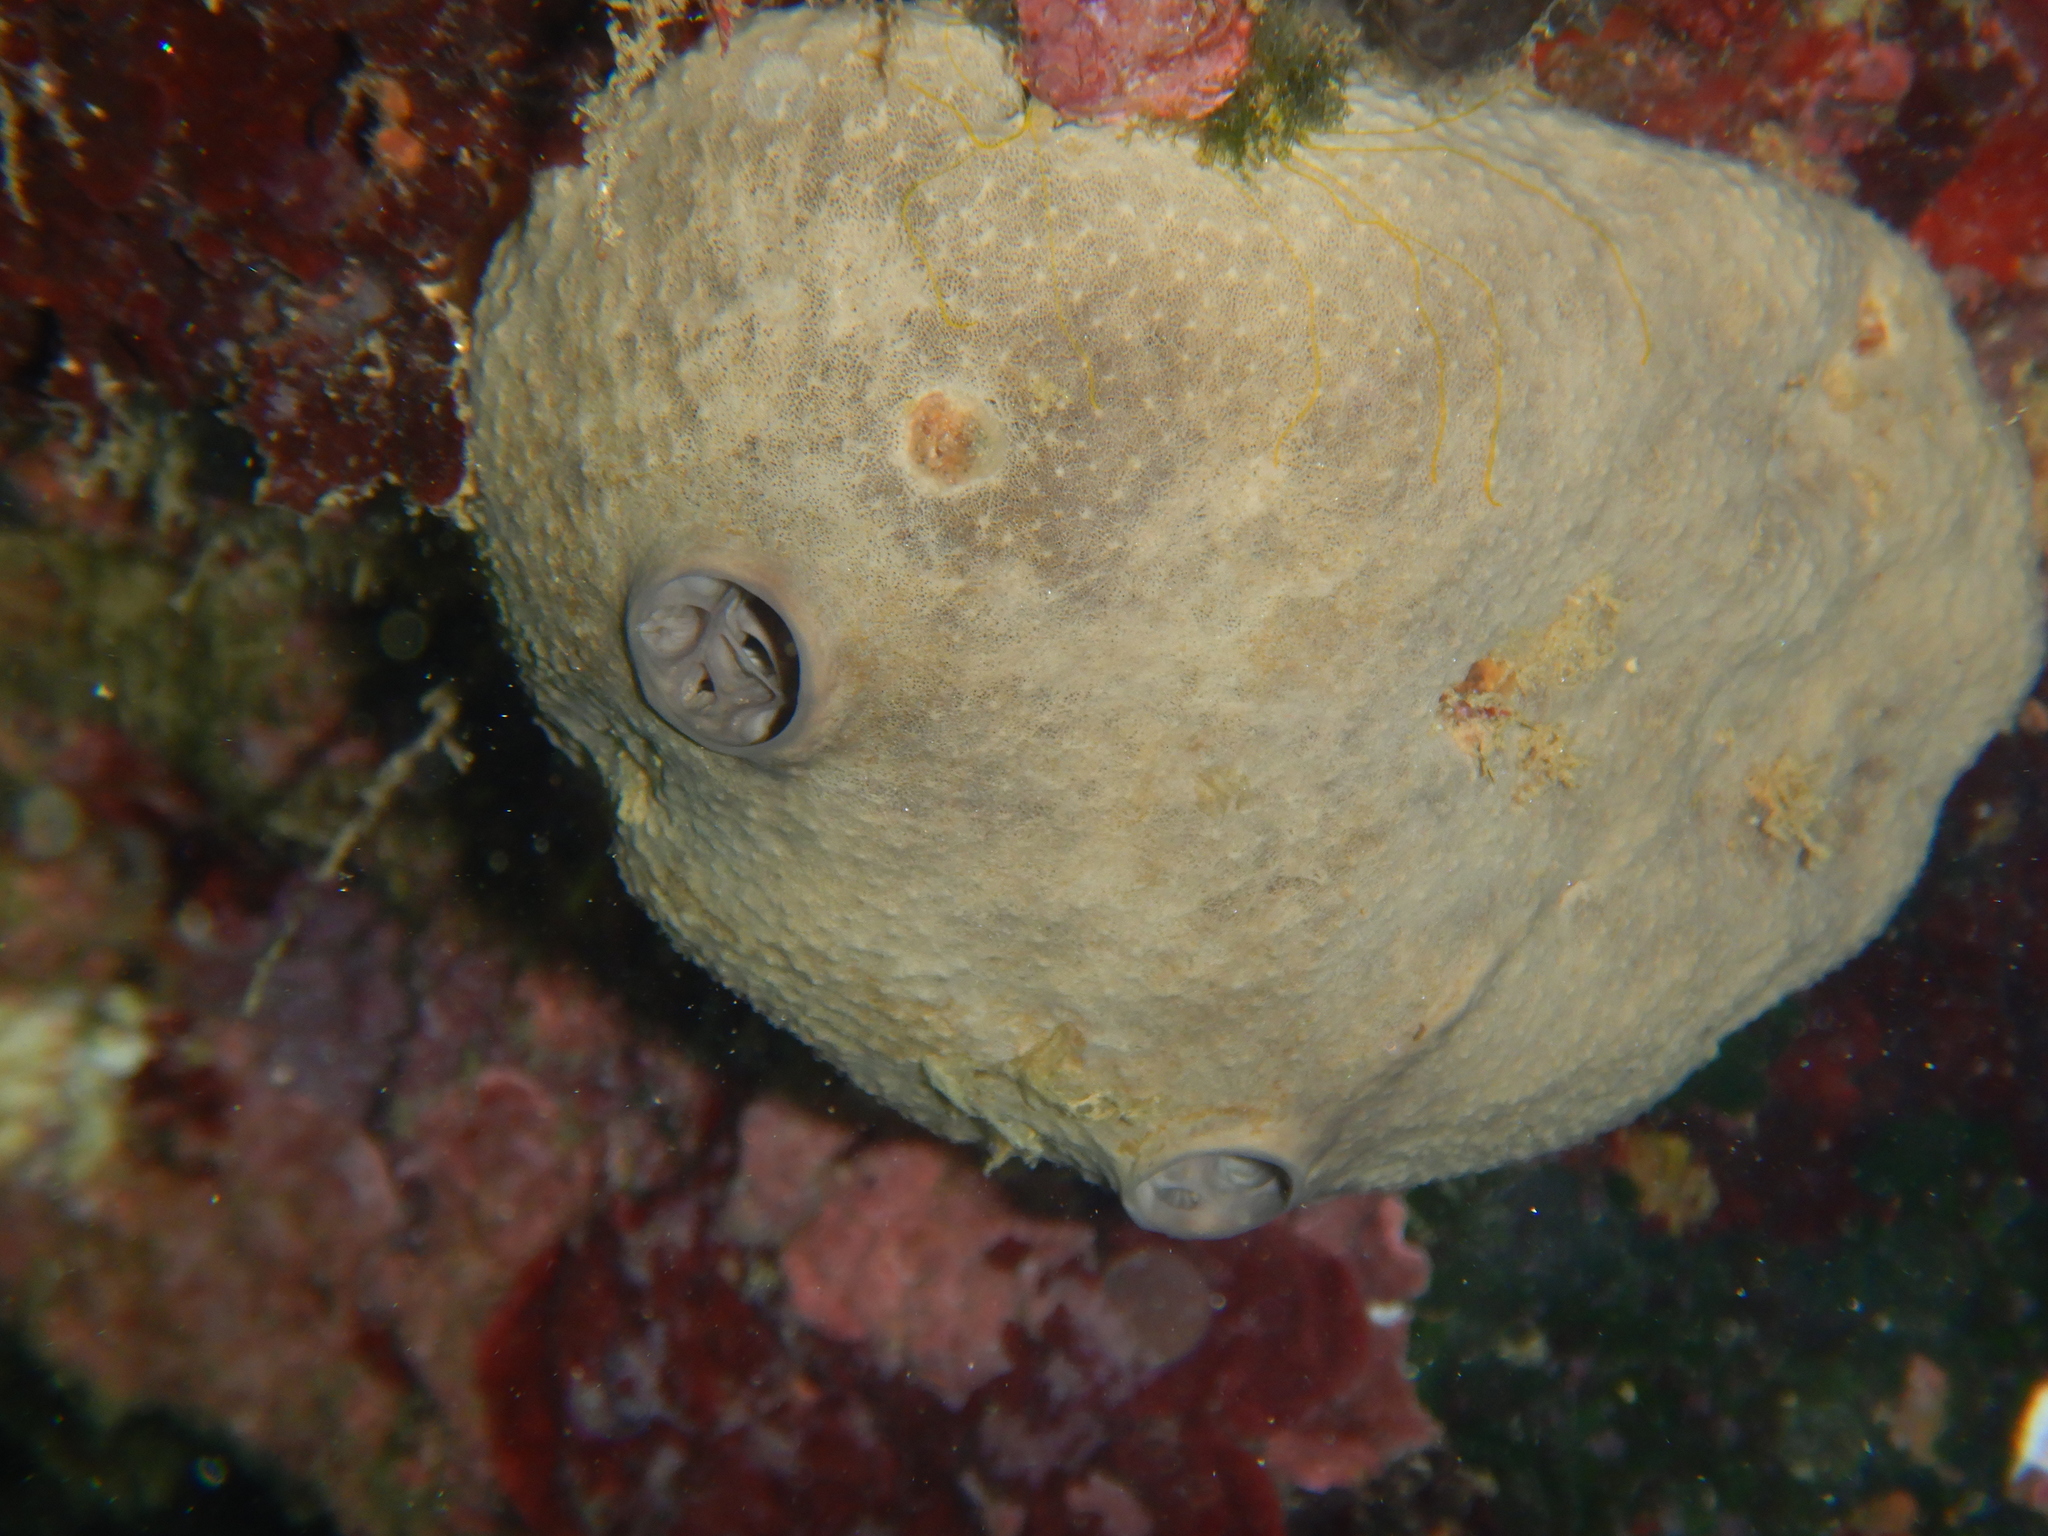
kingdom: Animalia
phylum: Porifera
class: Demospongiae
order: Dictyoceratida
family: Irciniidae
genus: Ircinia
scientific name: Ircinia oros
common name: Grey leather sponge
